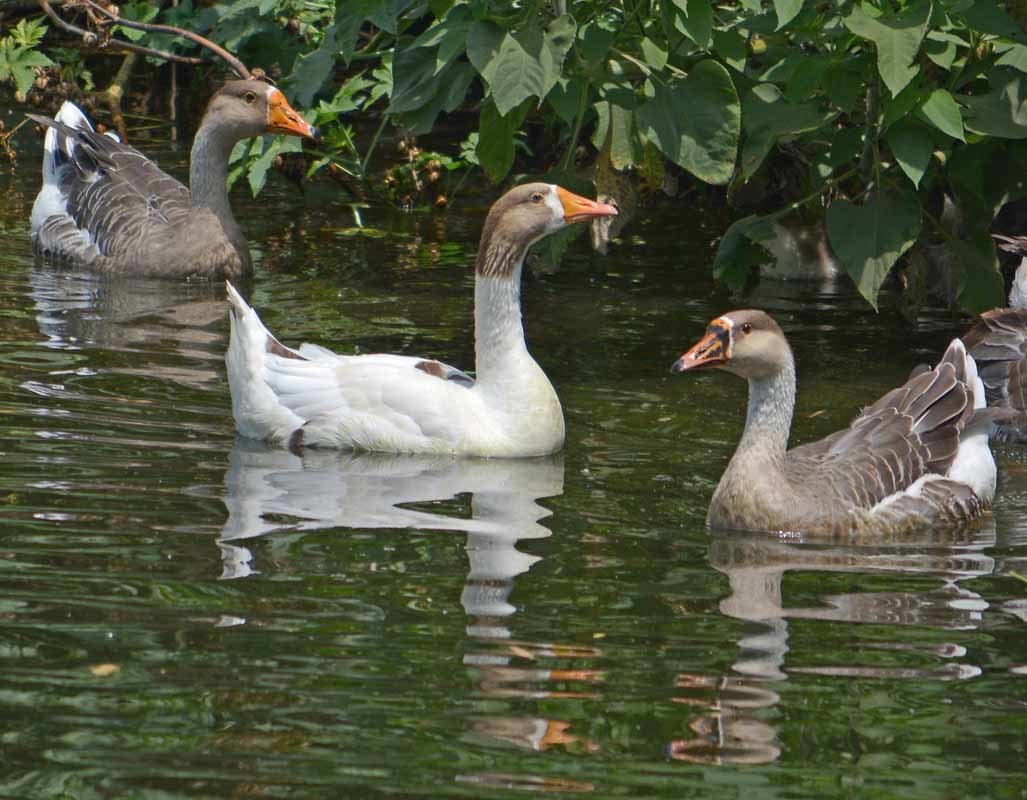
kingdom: Animalia
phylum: Chordata
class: Aves
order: Anseriformes
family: Anatidae
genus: Anser
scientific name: Anser
